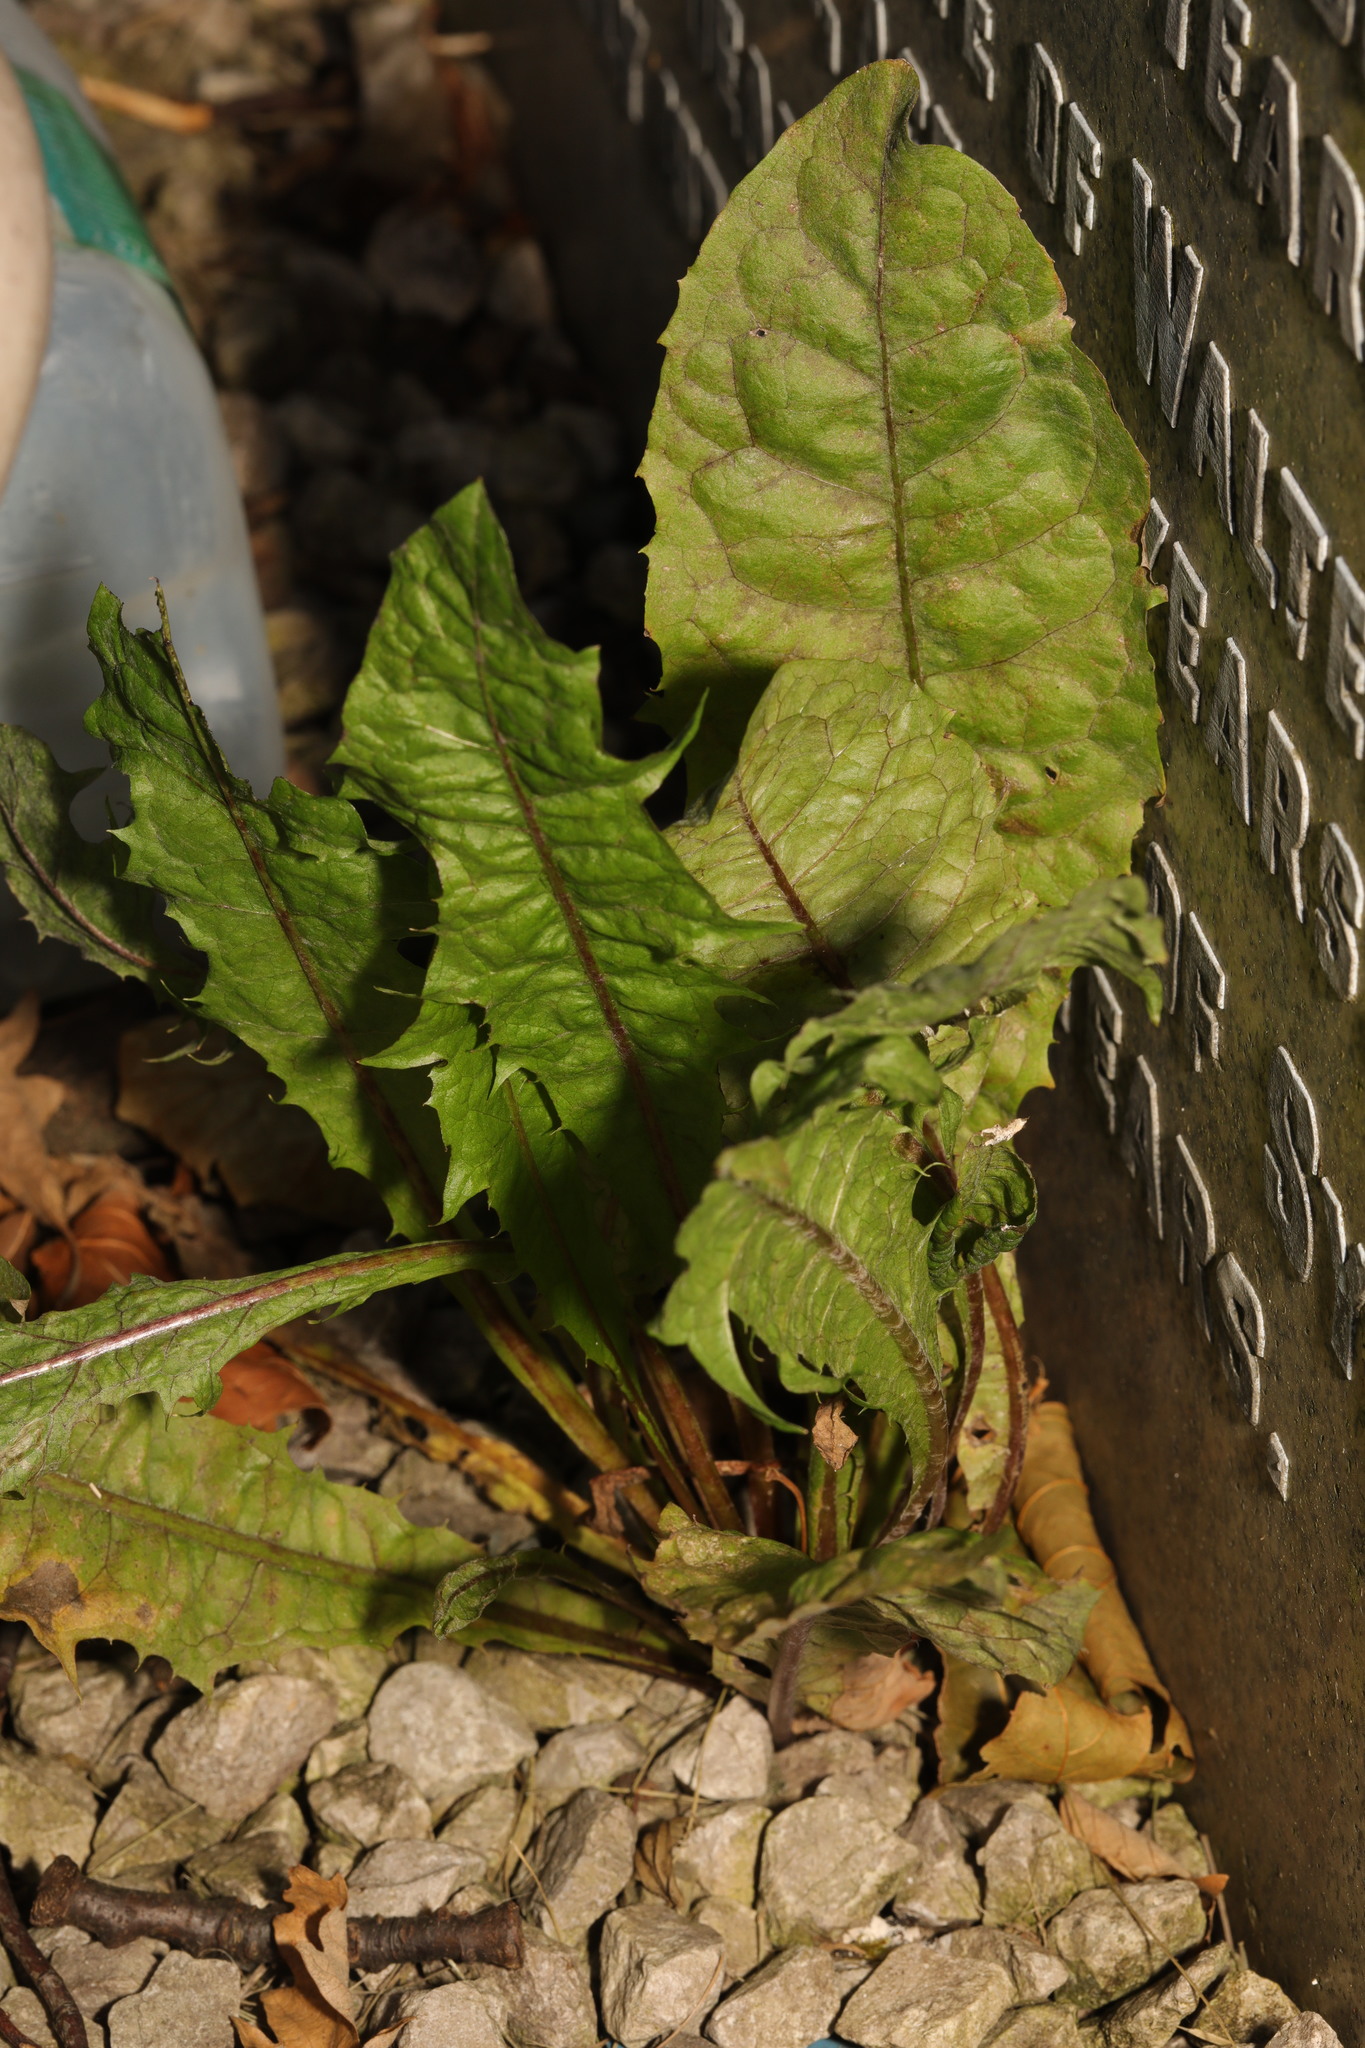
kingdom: Plantae
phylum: Tracheophyta
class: Magnoliopsida
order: Asterales
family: Asteraceae
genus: Taraxacum
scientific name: Taraxacum officinale
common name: Common dandelion
